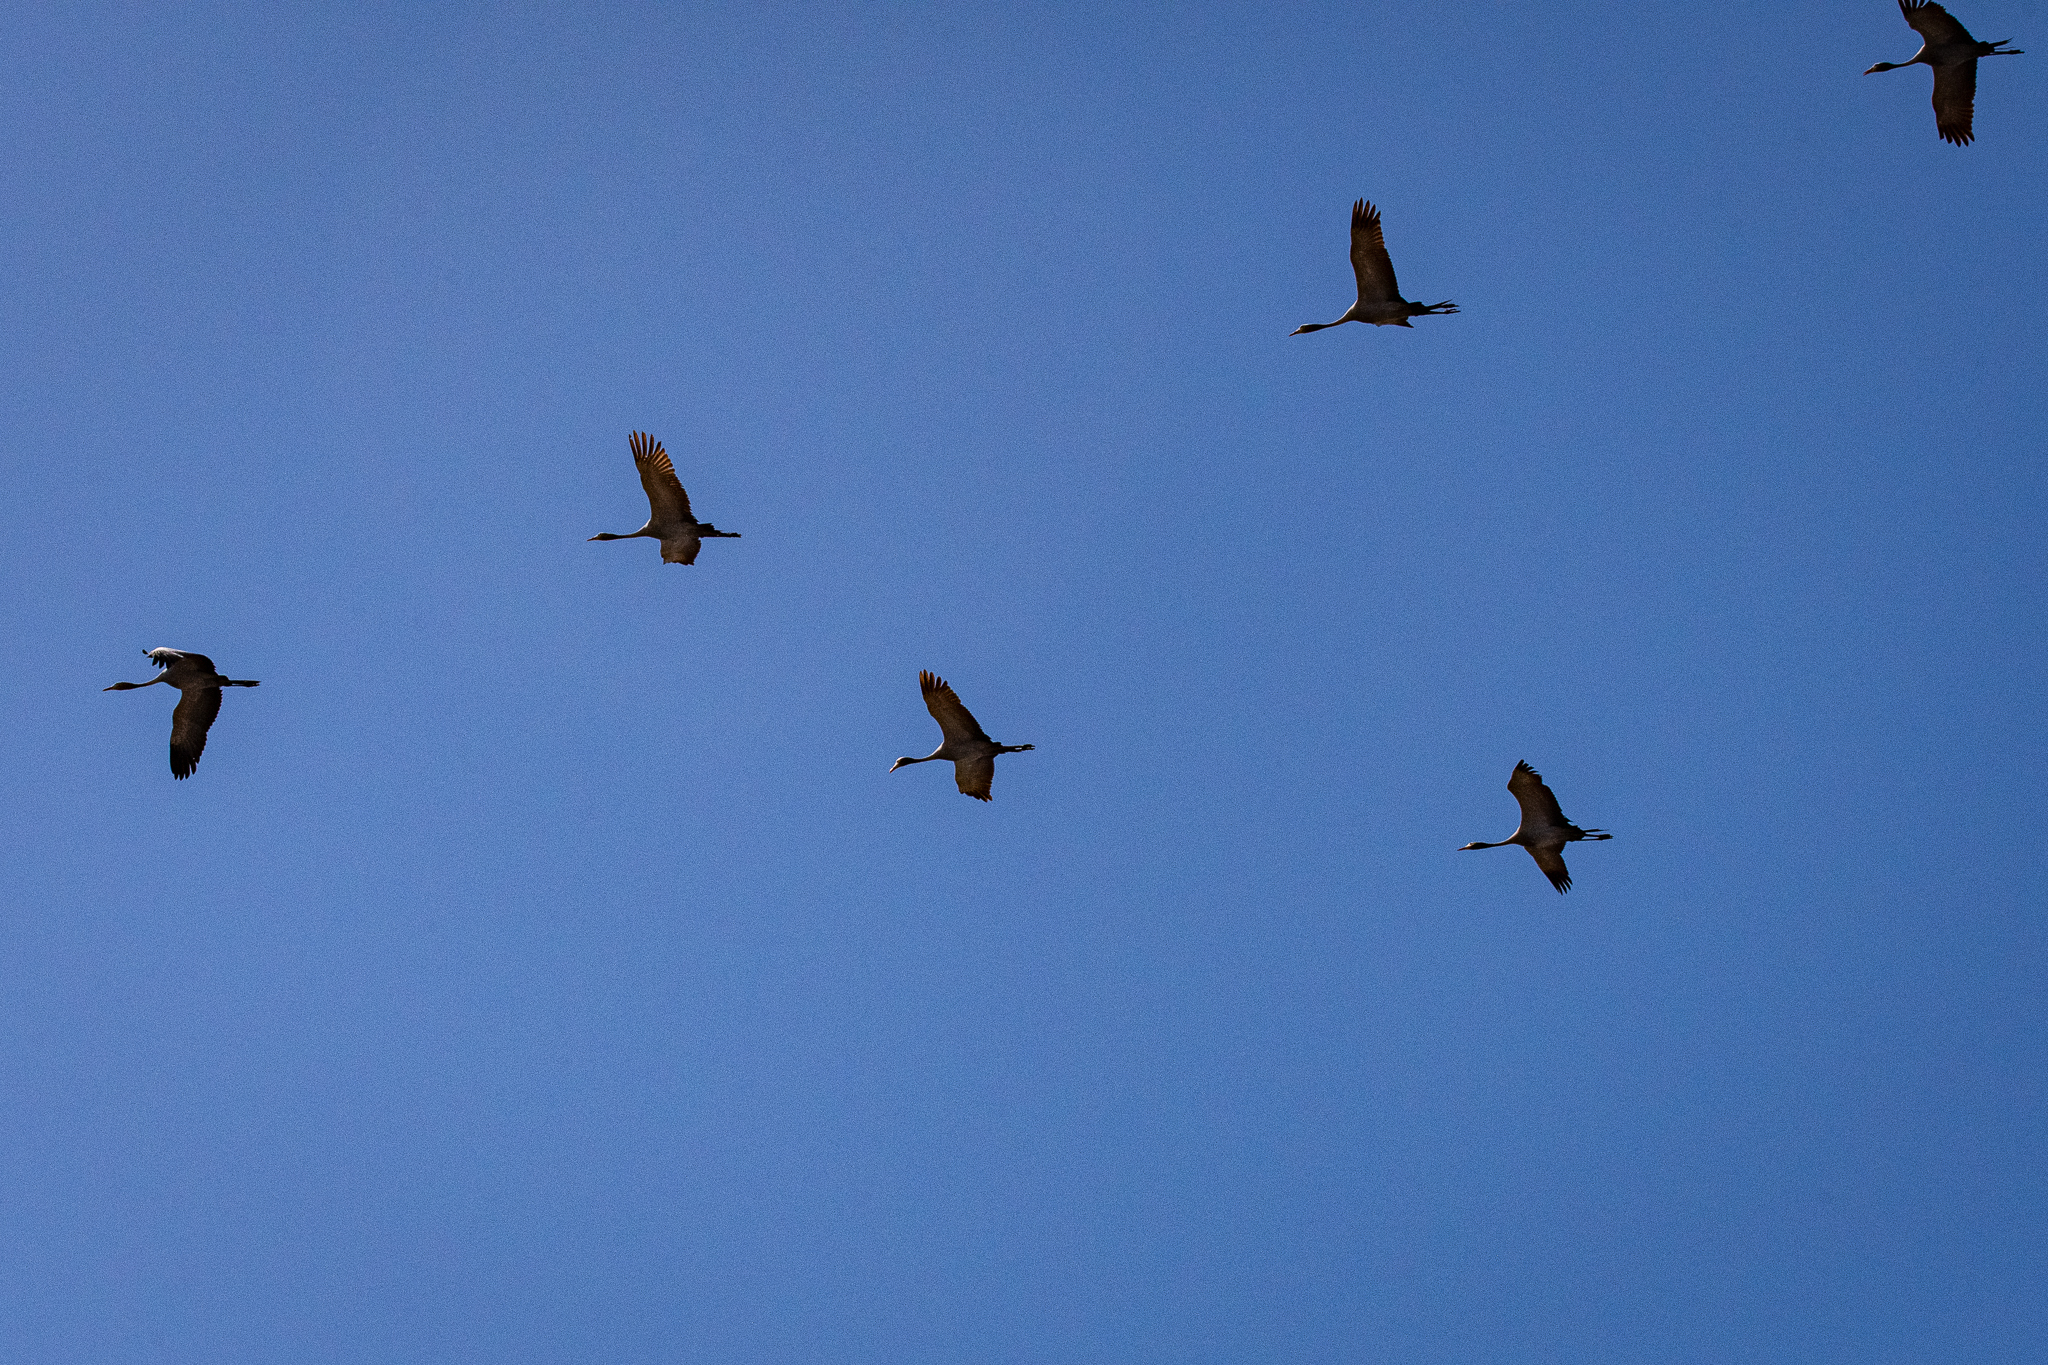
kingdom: Animalia
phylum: Chordata
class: Aves
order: Gruiformes
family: Gruidae
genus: Anthropoides
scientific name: Anthropoides paradiseus
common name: Blue crane
